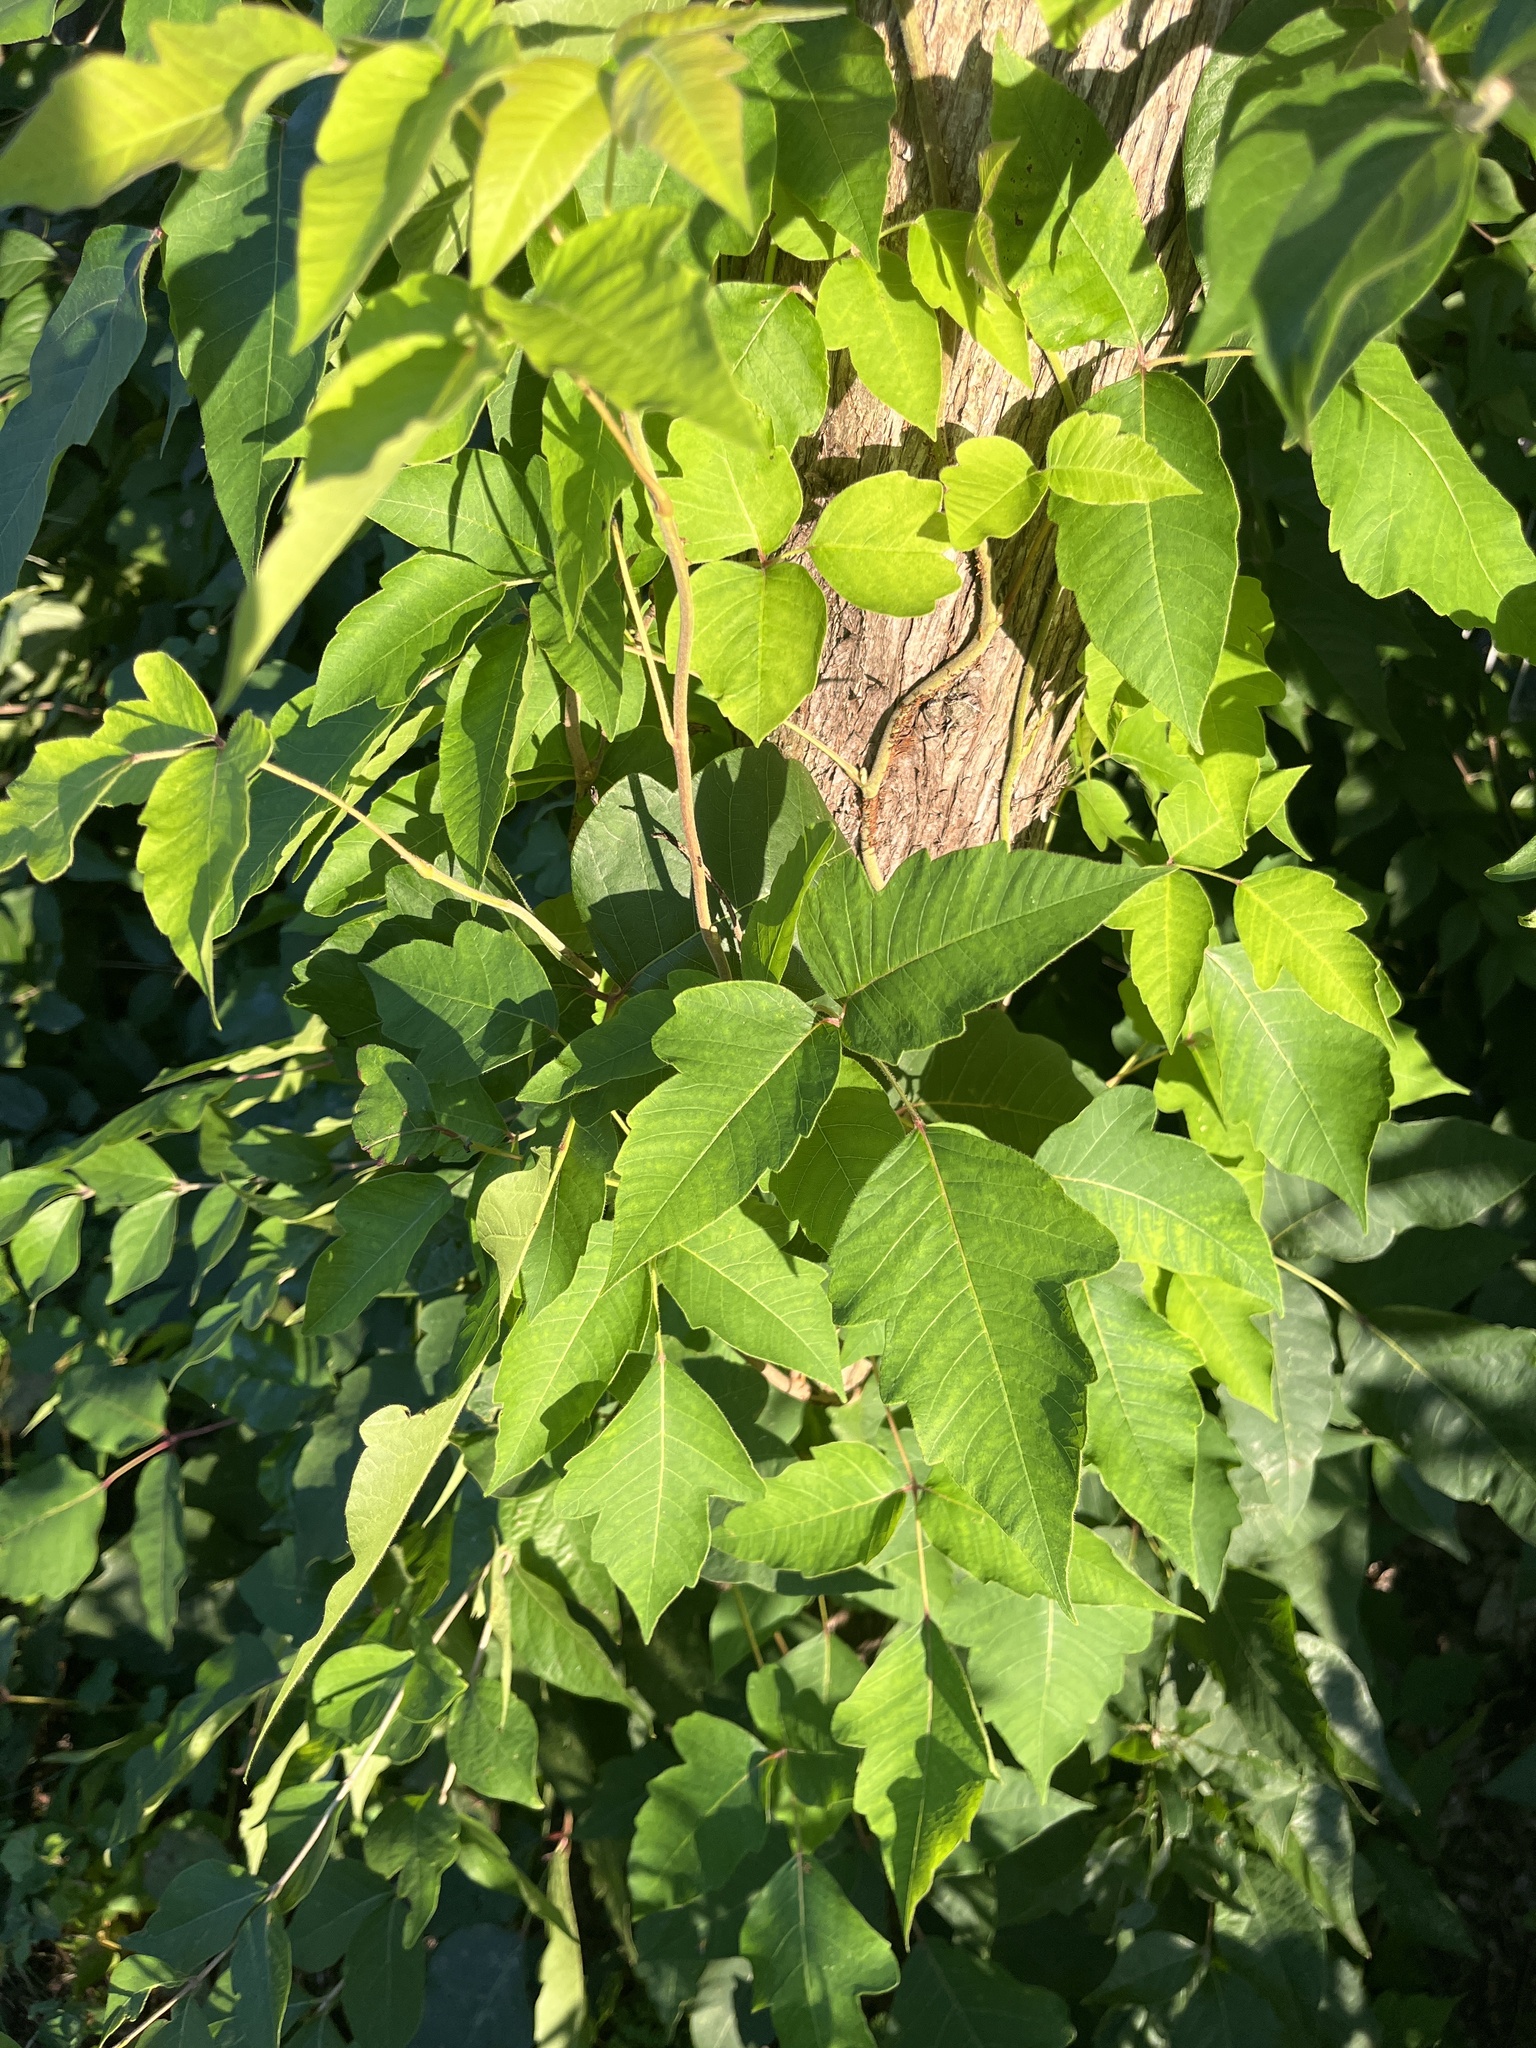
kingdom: Plantae
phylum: Tracheophyta
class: Magnoliopsida
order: Sapindales
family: Anacardiaceae
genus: Toxicodendron
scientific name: Toxicodendron radicans
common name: Poison ivy
